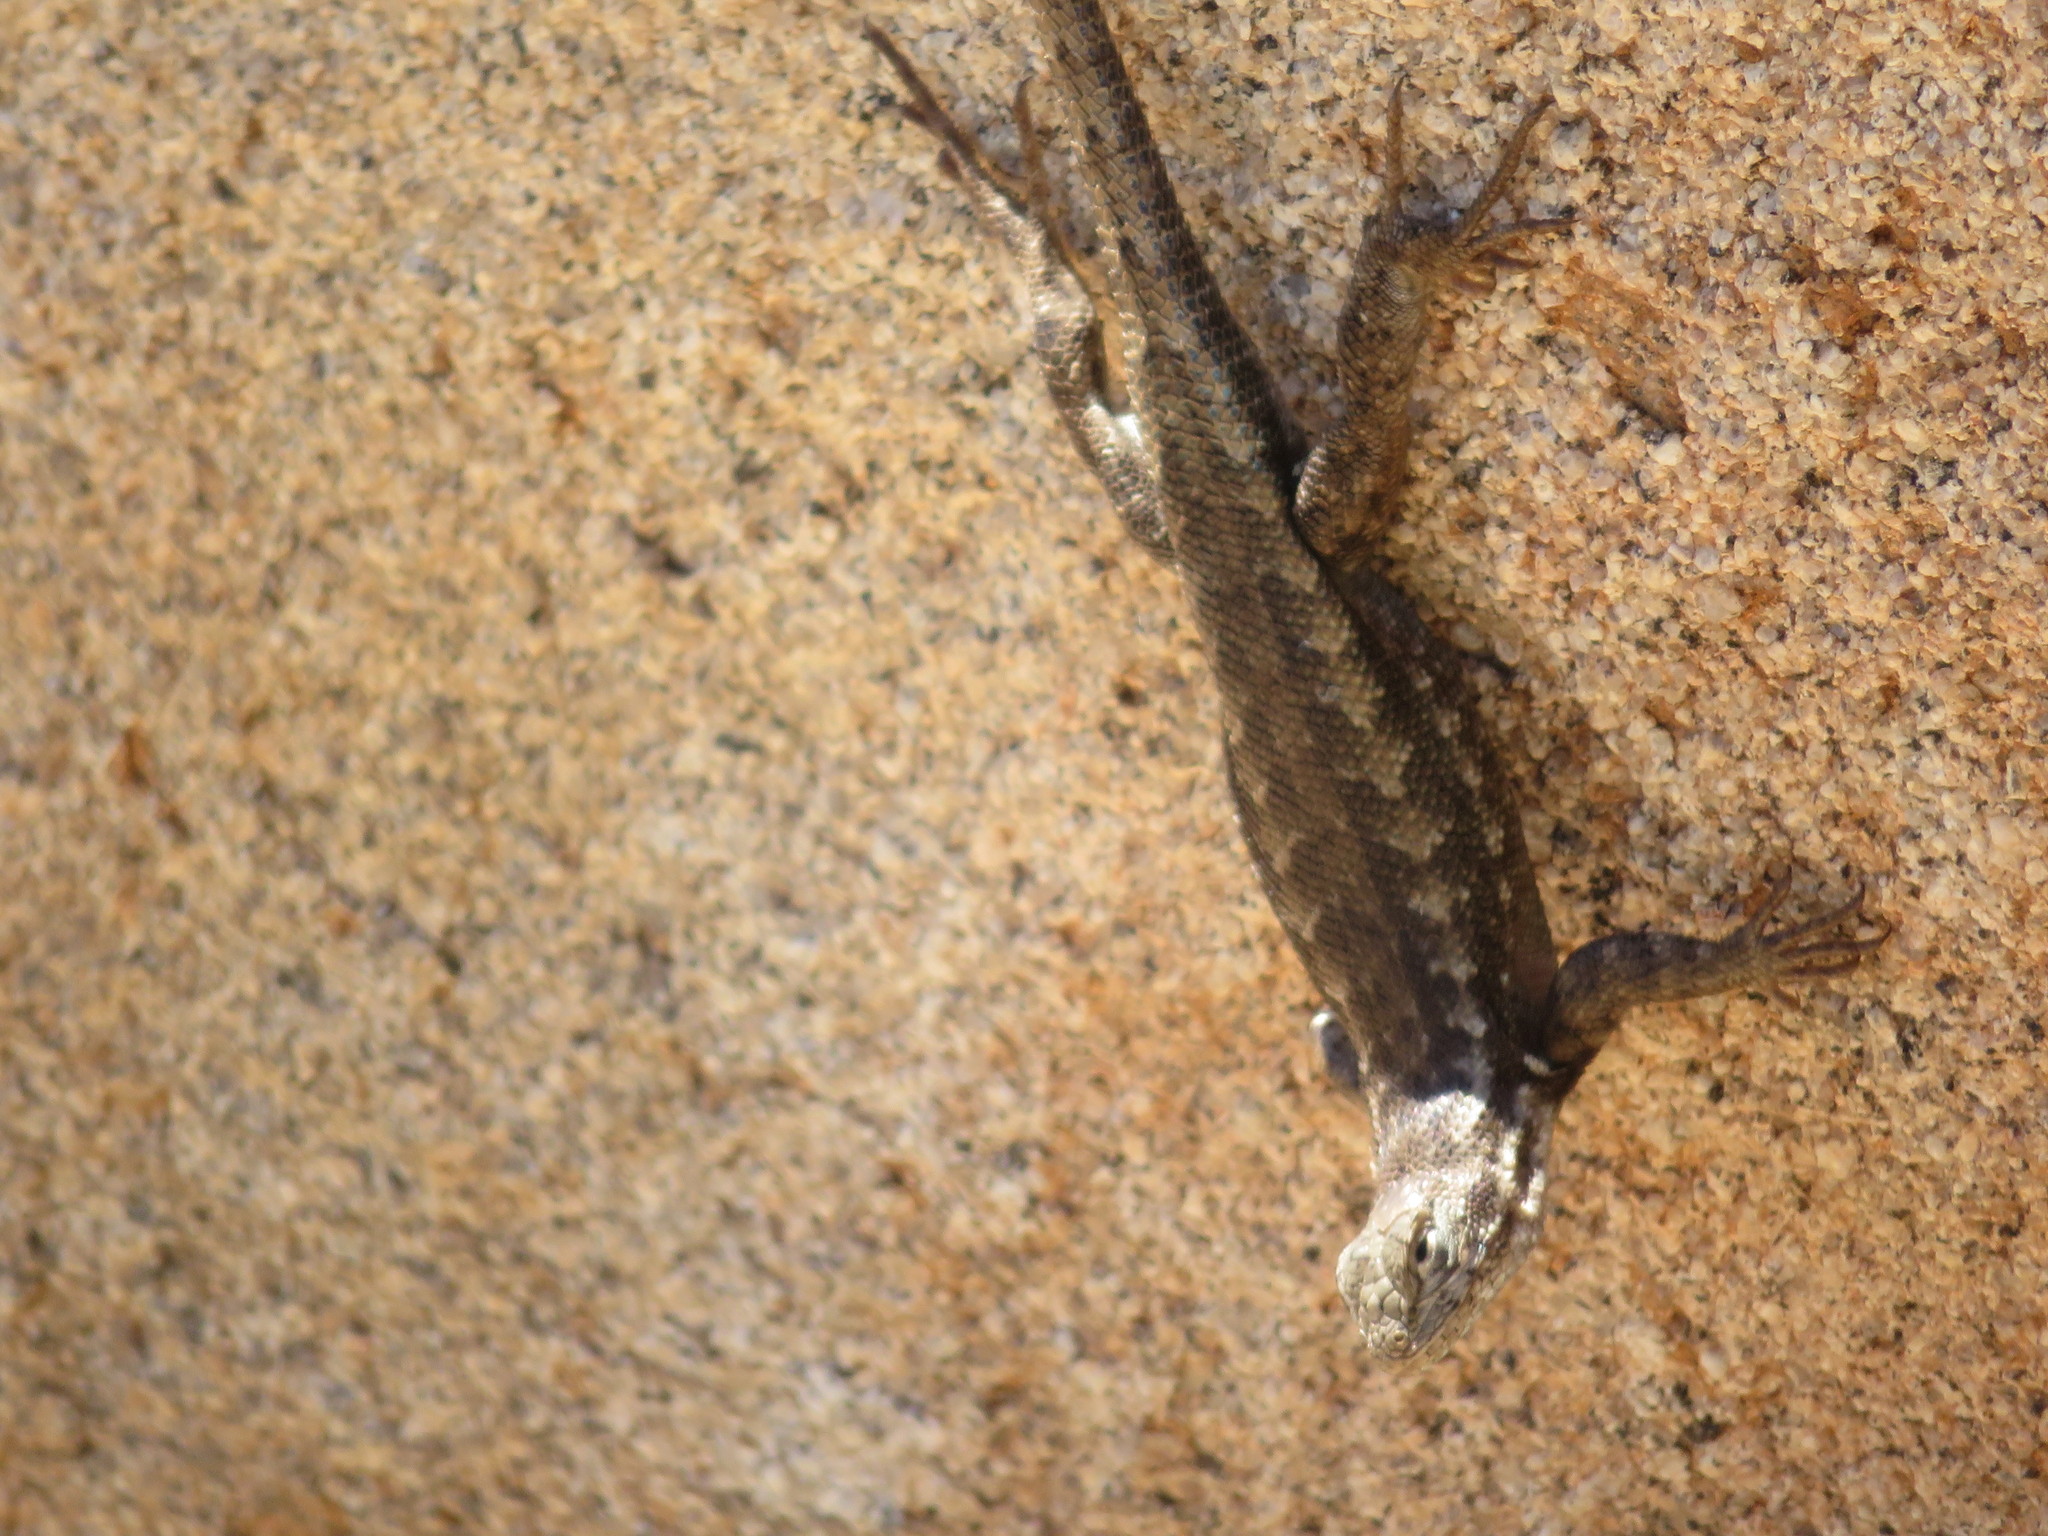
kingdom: Animalia
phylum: Chordata
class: Squamata
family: Phrynosomatidae
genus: Sceloporus
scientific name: Sceloporus graciosus
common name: Sagebrush lizard
